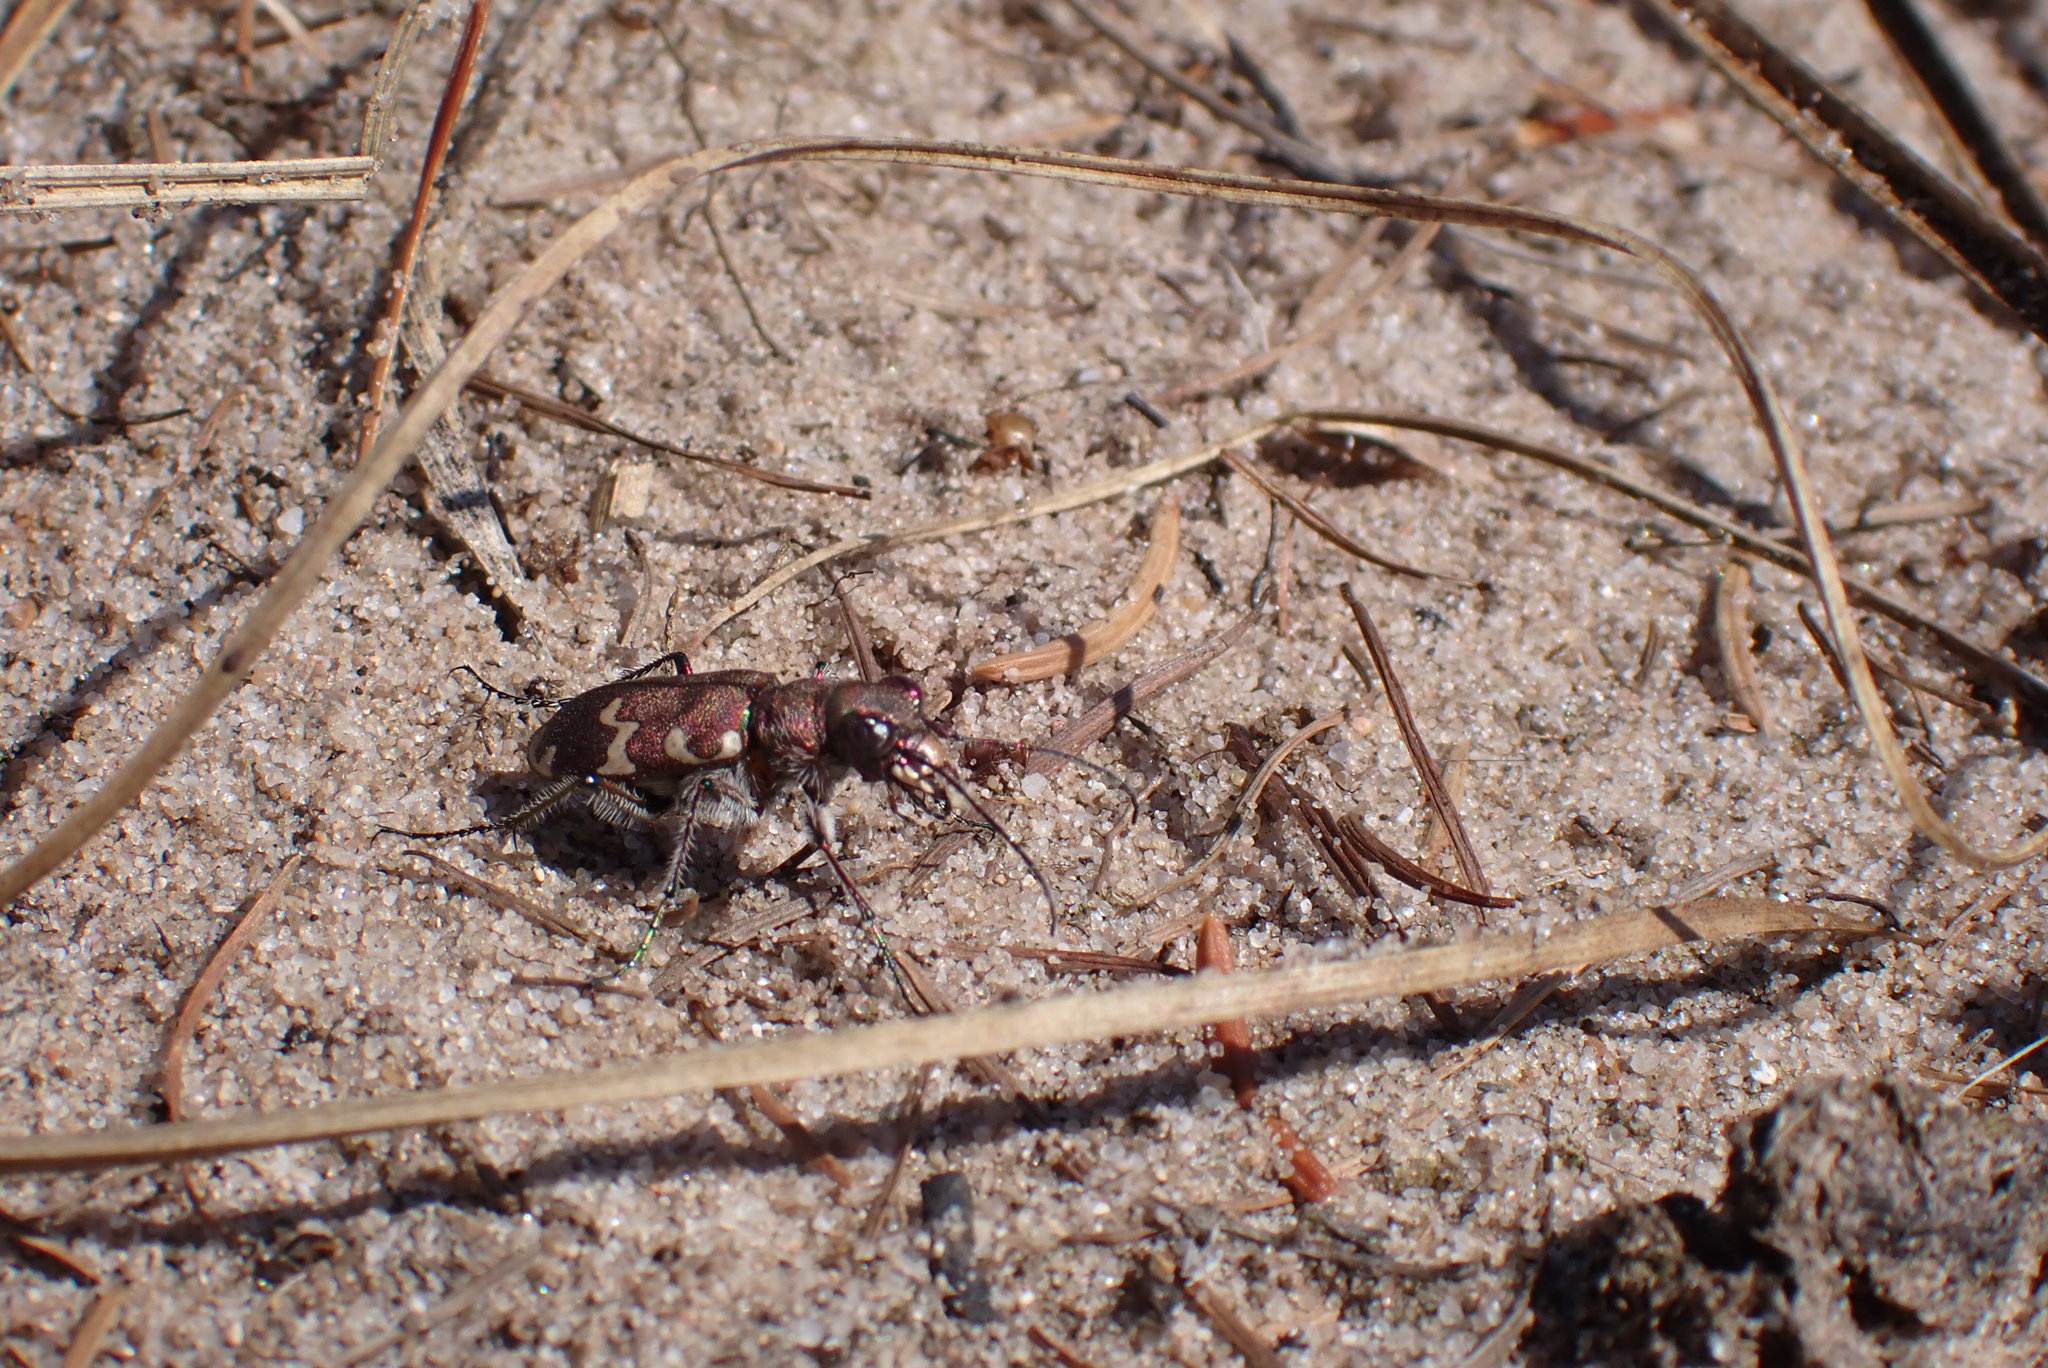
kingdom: Animalia
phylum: Arthropoda
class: Insecta
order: Coleoptera
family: Carabidae
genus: Cicindela
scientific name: Cicindela hybrida
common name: Northern dune tiger beetle
